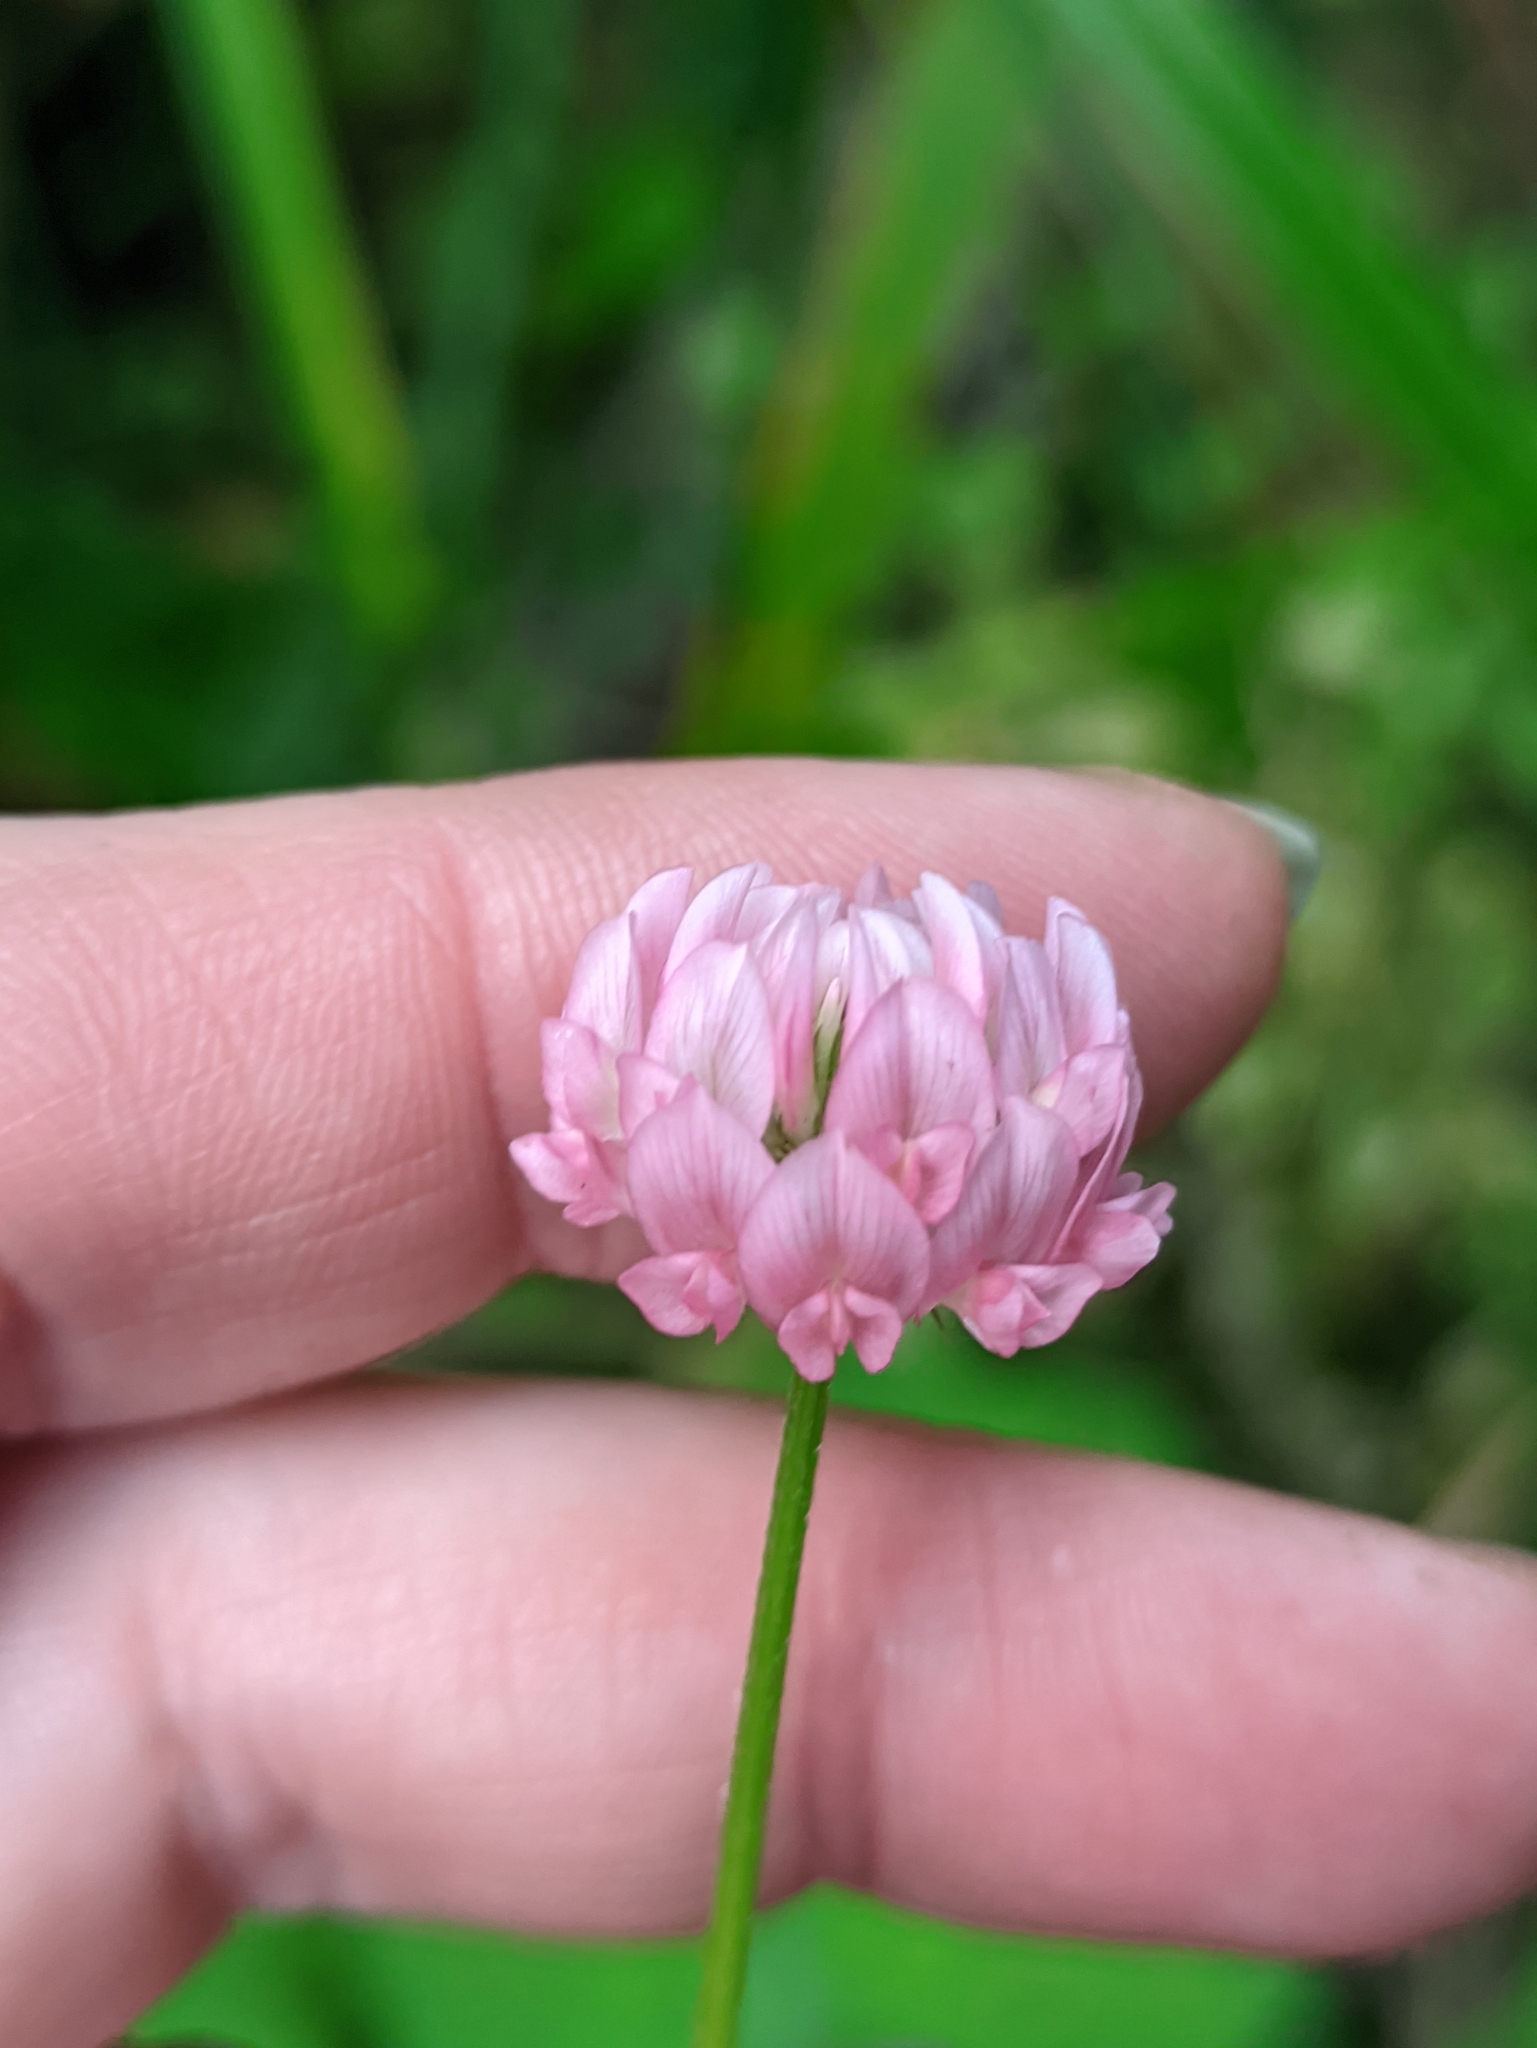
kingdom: Plantae
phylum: Tracheophyta
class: Magnoliopsida
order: Fabales
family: Fabaceae
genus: Trifolium
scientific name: Trifolium hybridum
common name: Alsike clover
